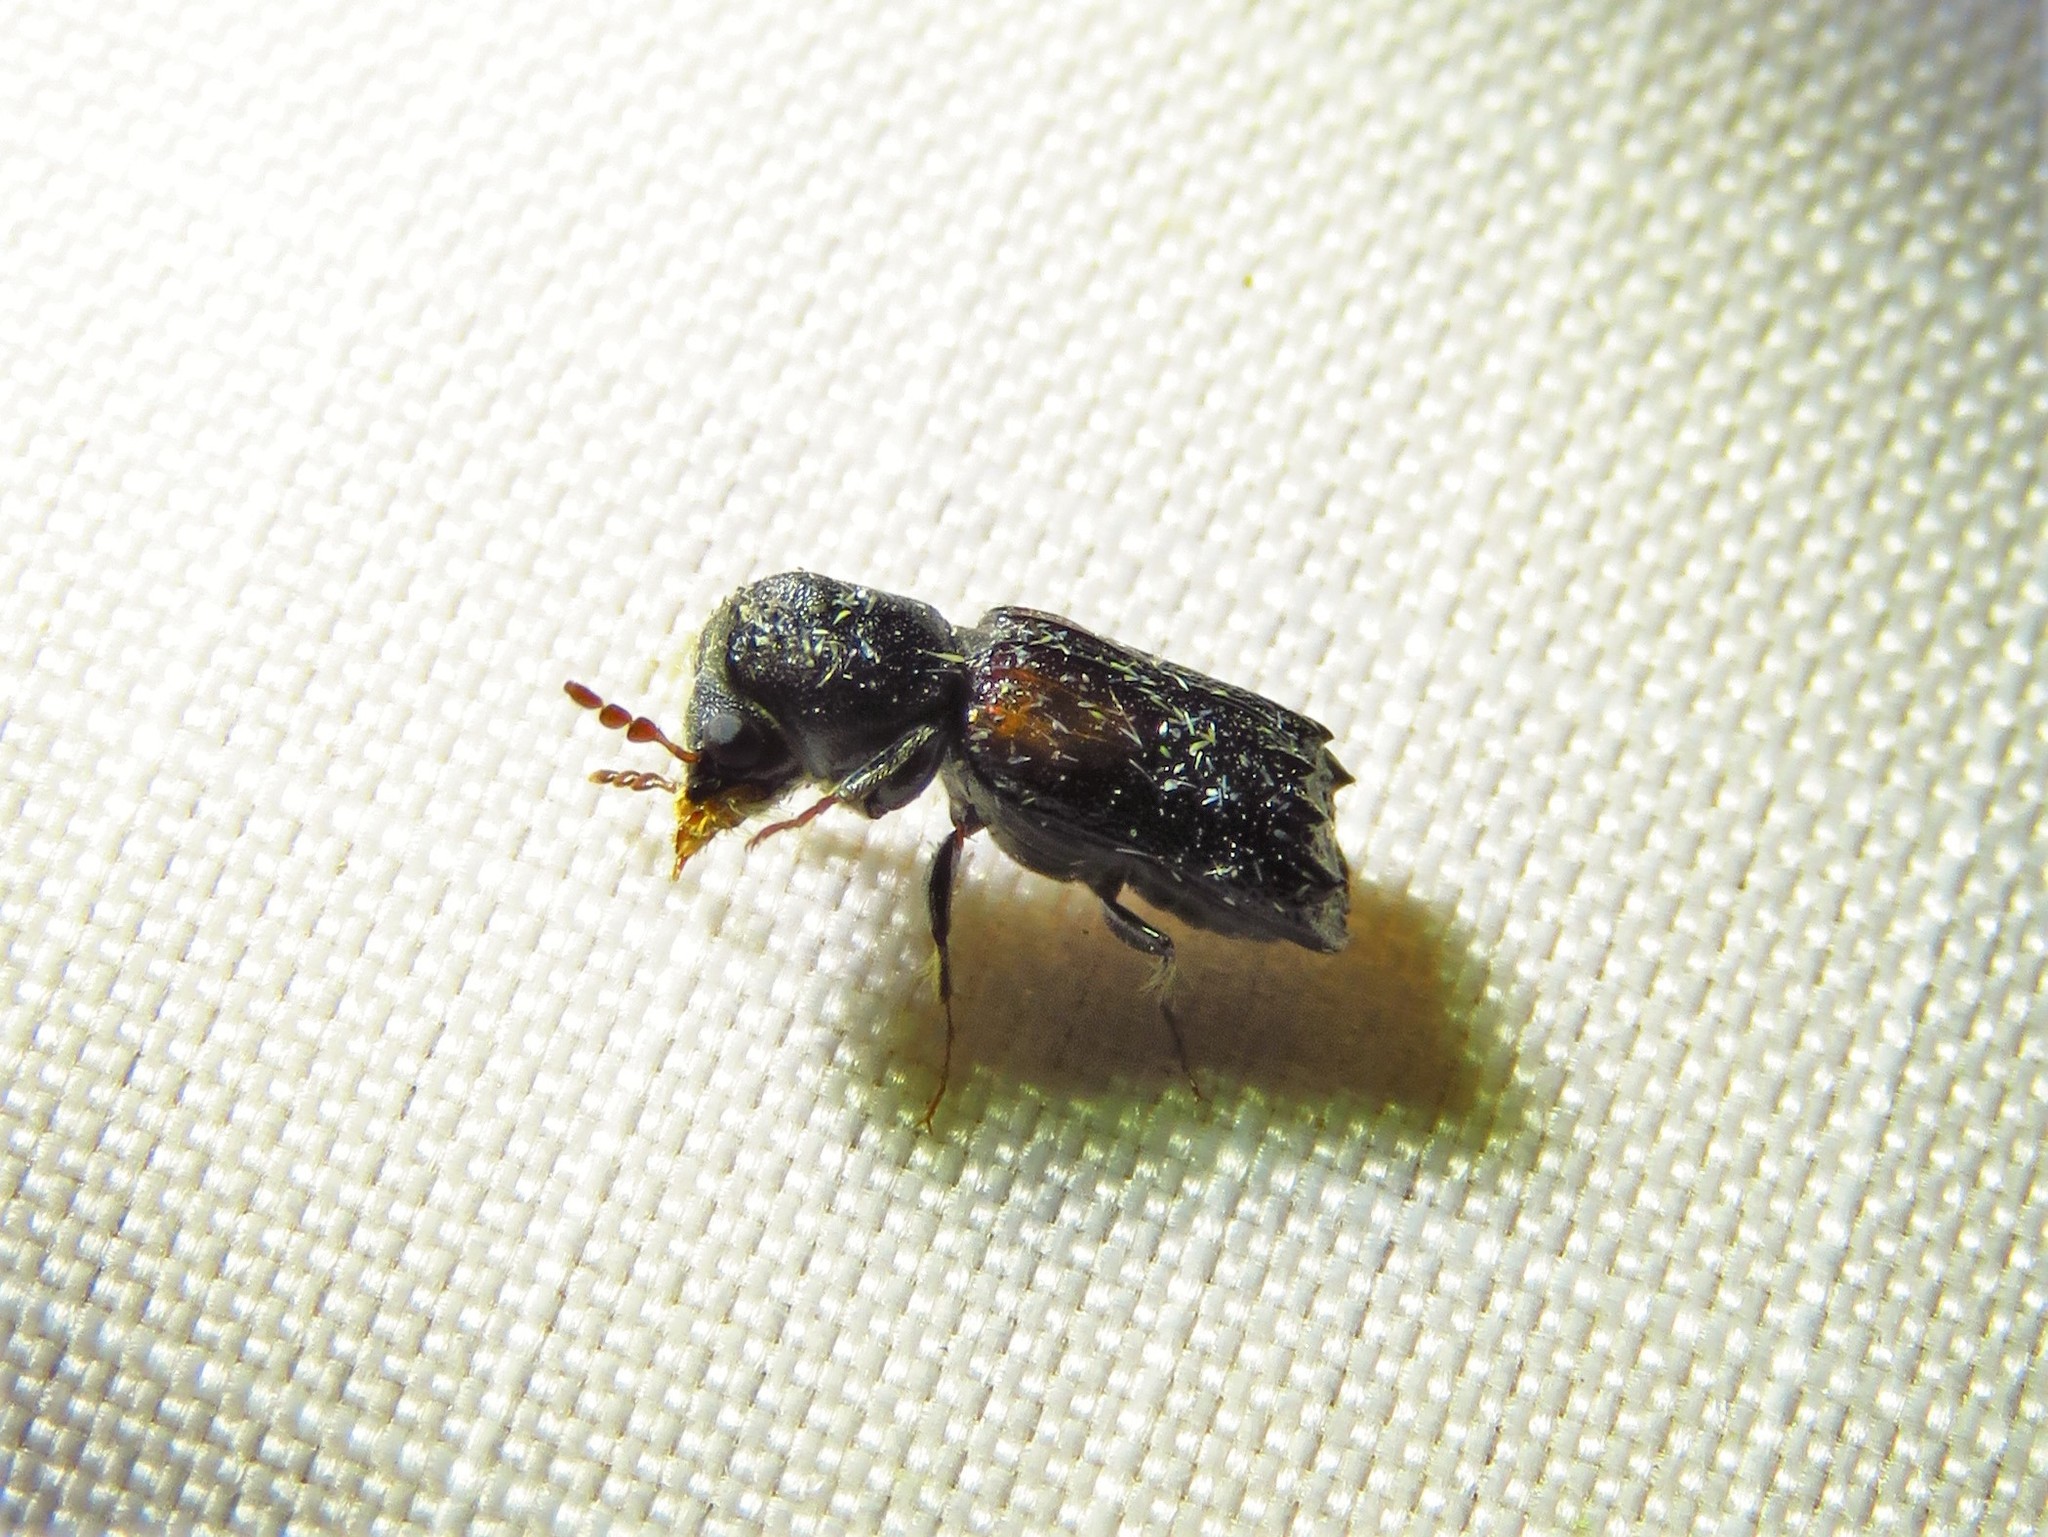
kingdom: Animalia
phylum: Arthropoda
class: Insecta
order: Coleoptera
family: Bostrichidae
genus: Xylobiops
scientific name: Xylobiops basilaris
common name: Red-shouldered bostrichid
